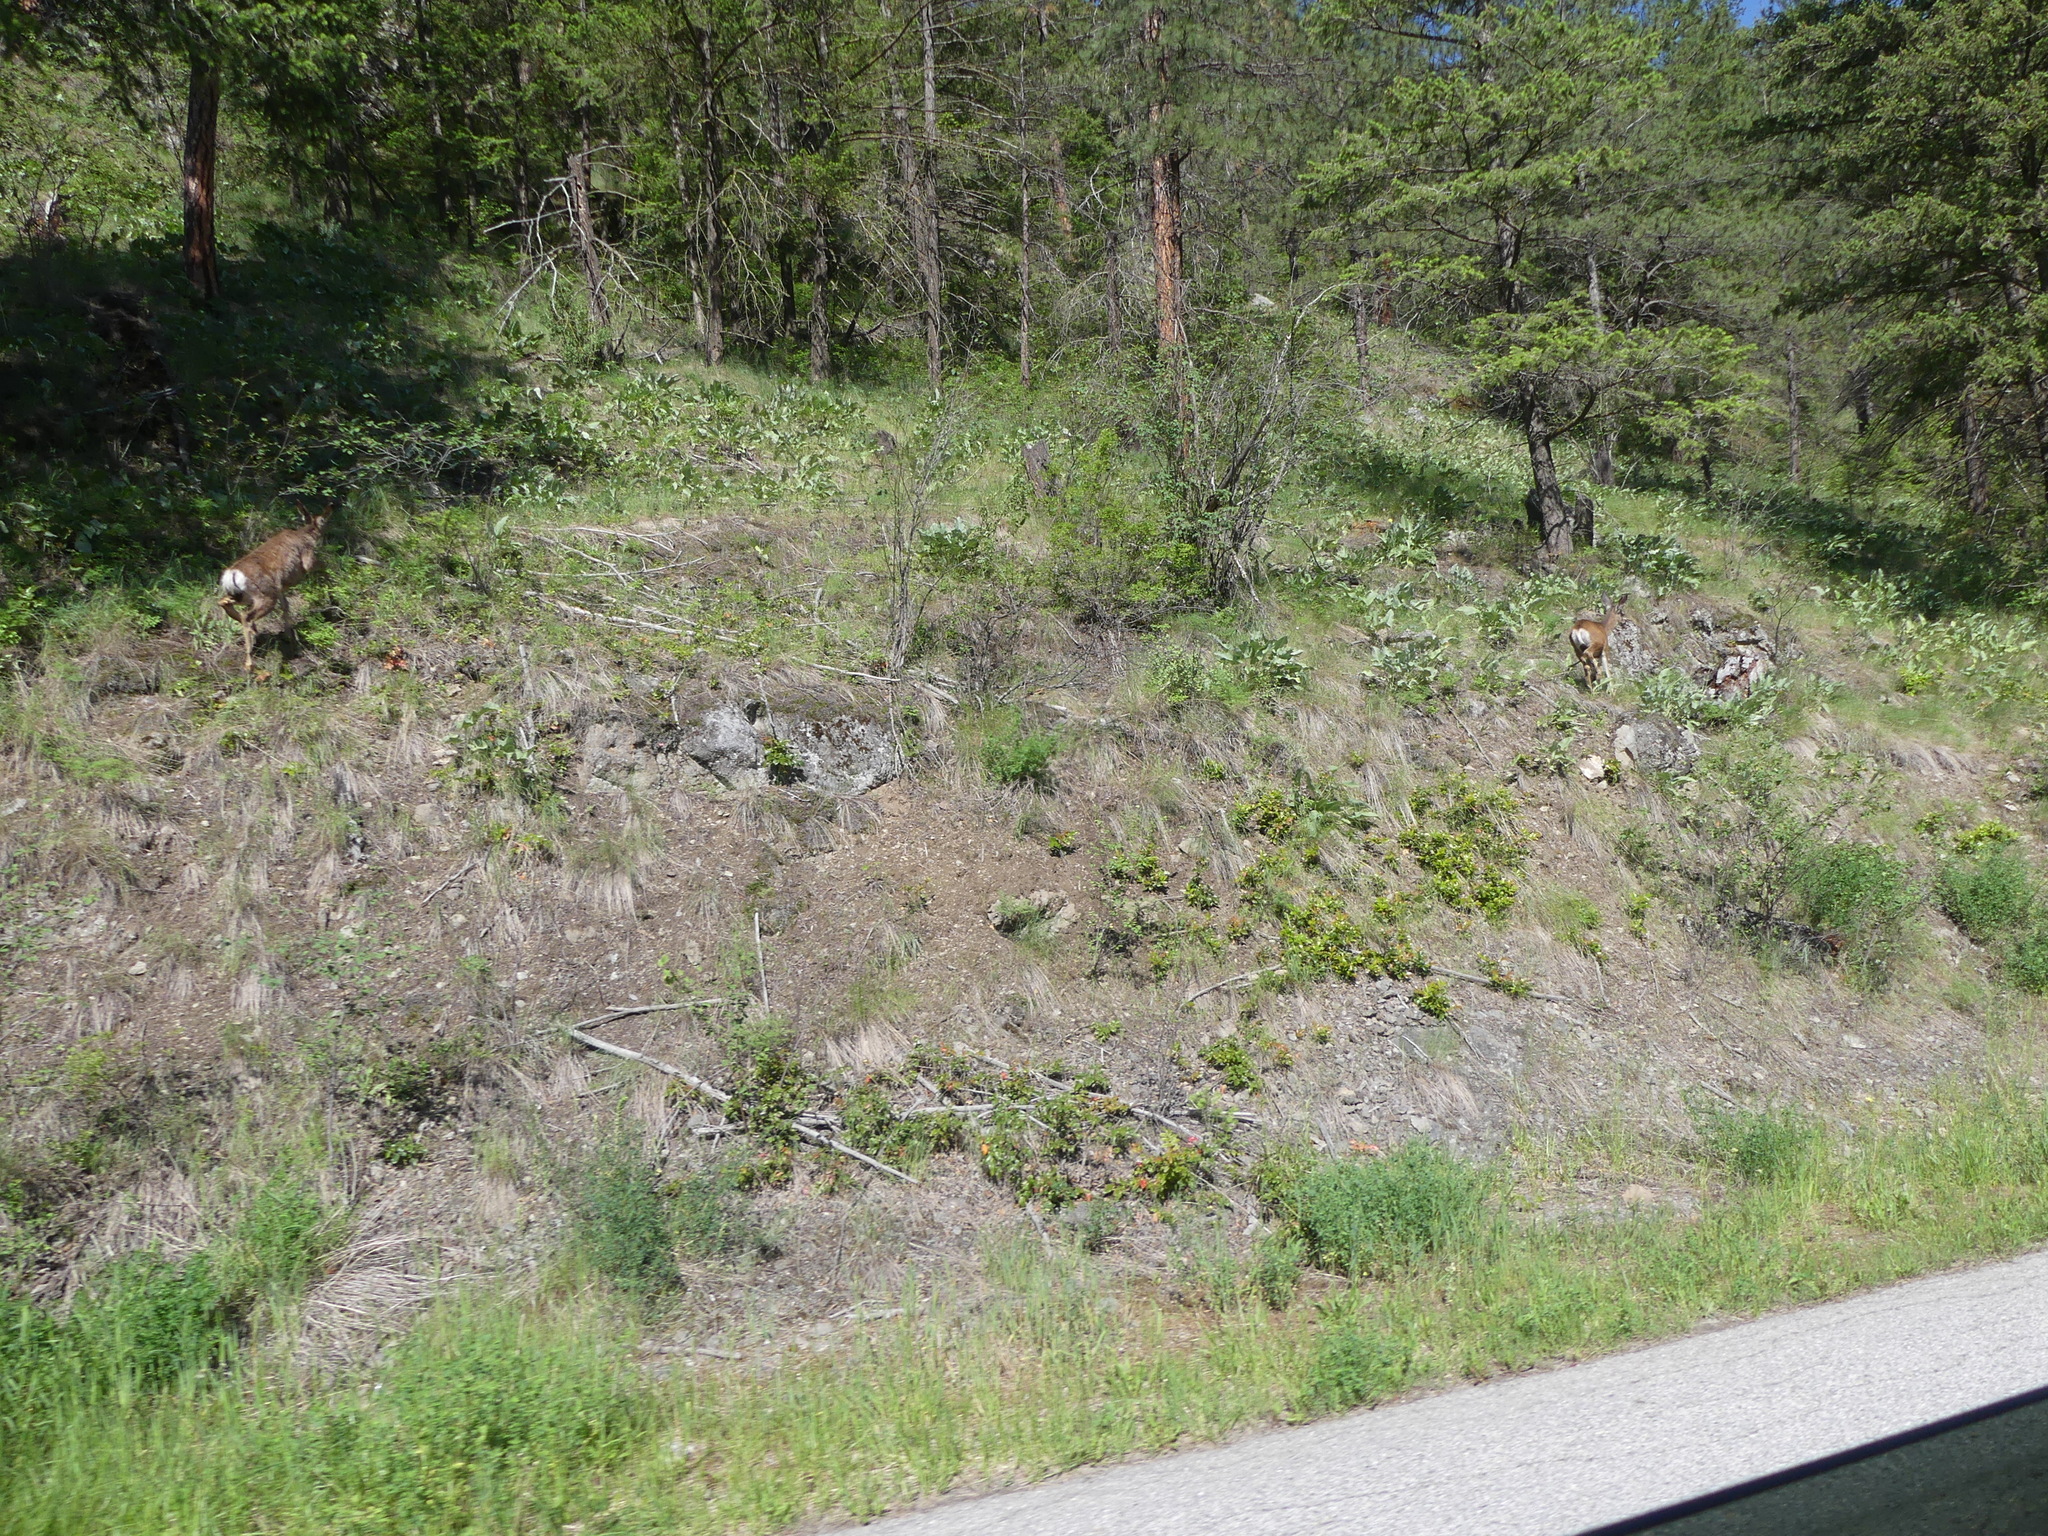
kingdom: Animalia
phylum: Chordata
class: Mammalia
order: Artiodactyla
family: Cervidae
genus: Odocoileus
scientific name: Odocoileus hemionus
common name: Mule deer
